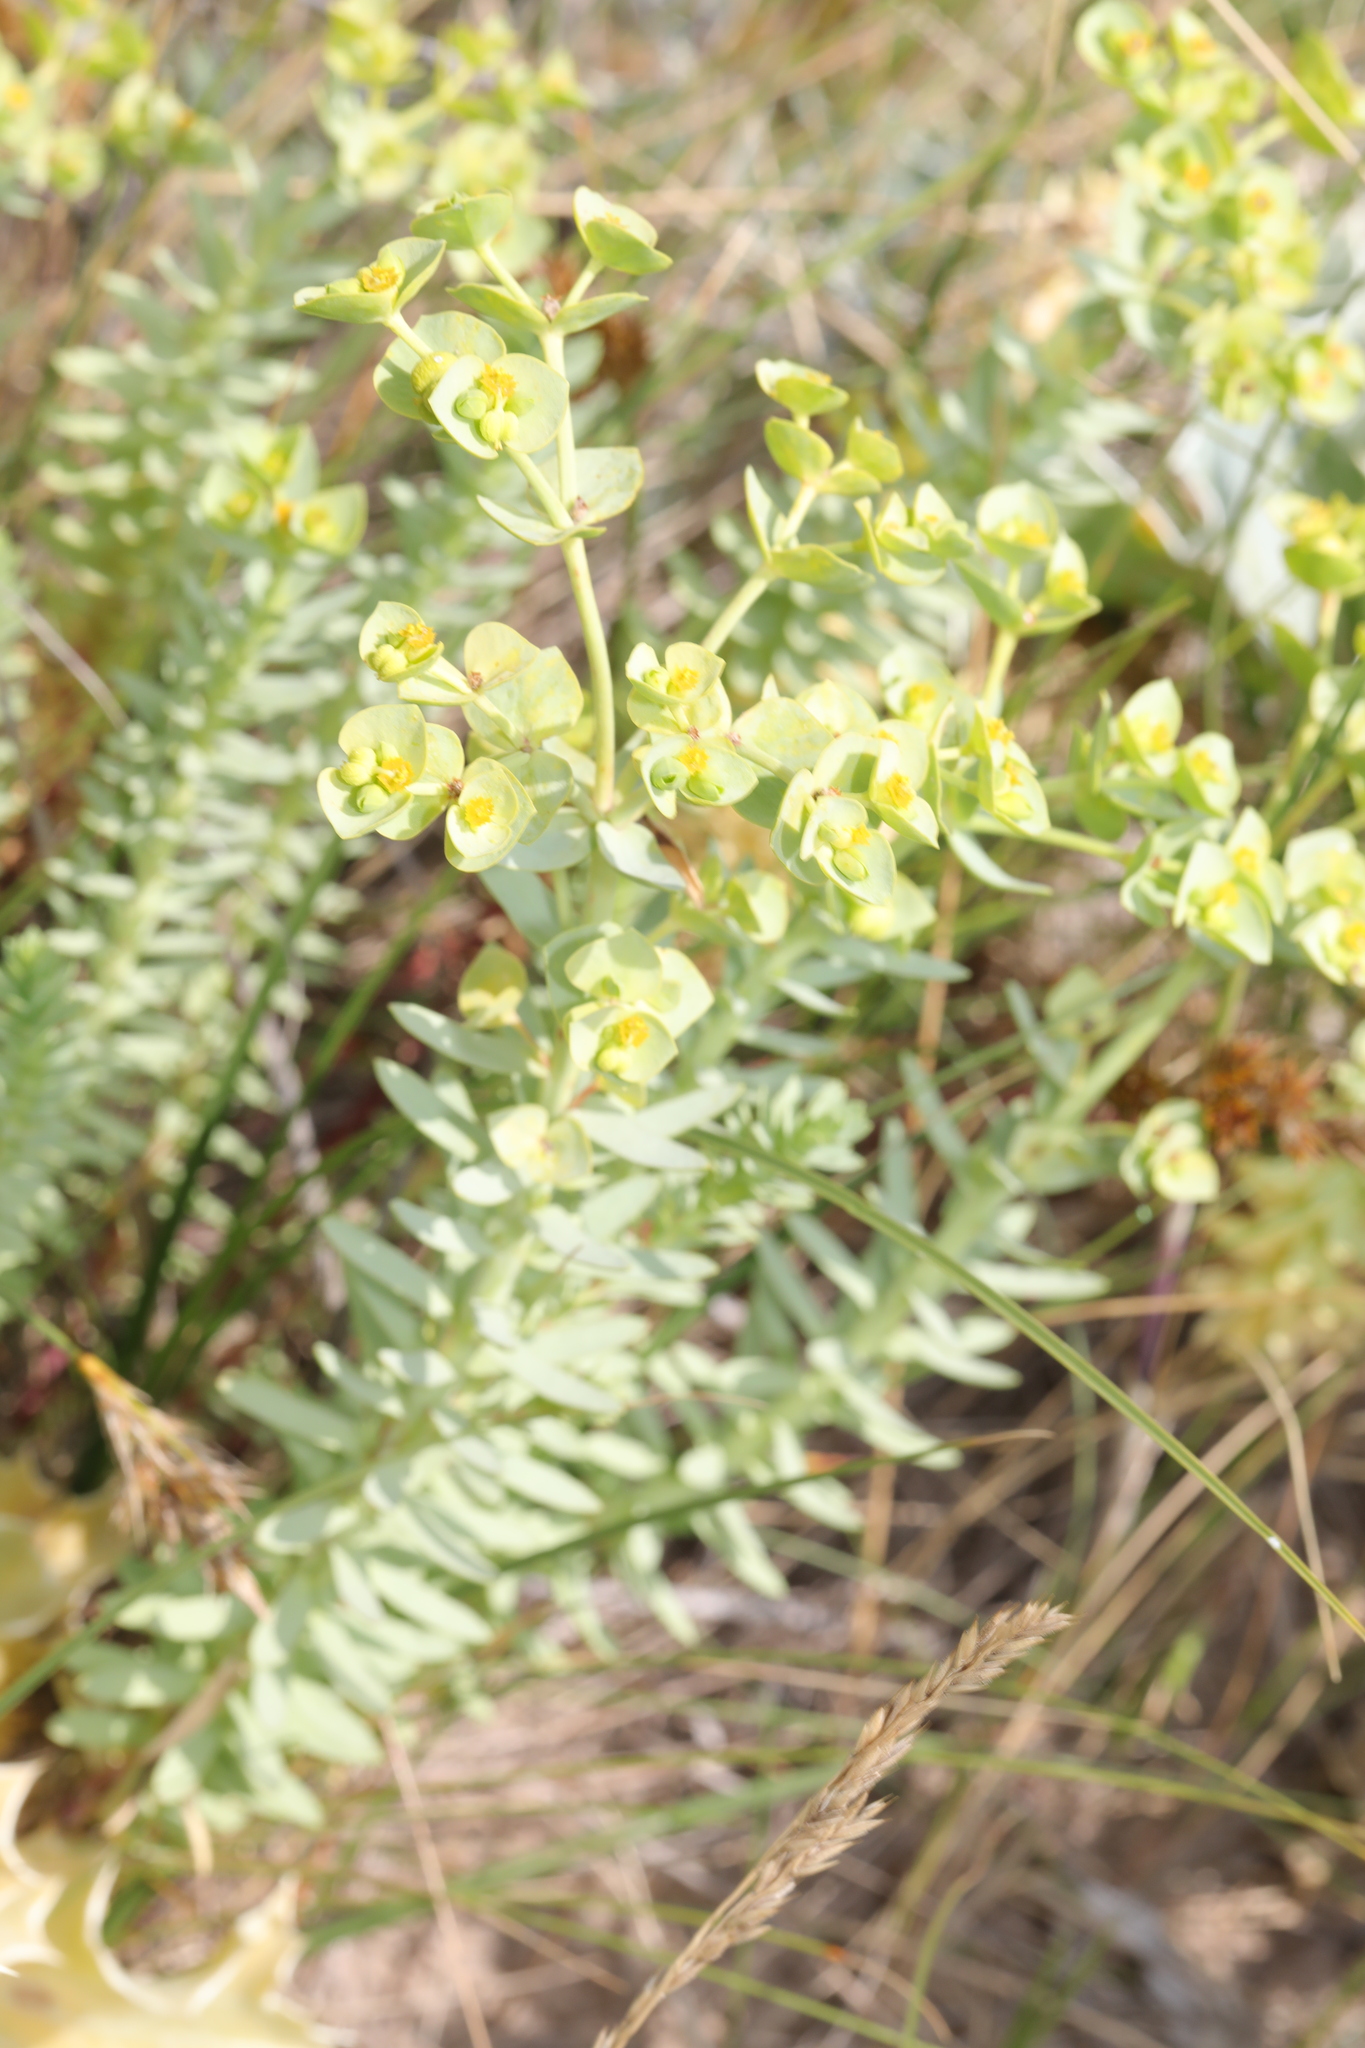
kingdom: Plantae
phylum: Tracheophyta
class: Magnoliopsida
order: Malpighiales
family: Euphorbiaceae
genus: Euphorbia
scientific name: Euphorbia paralias
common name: Sea spurge
